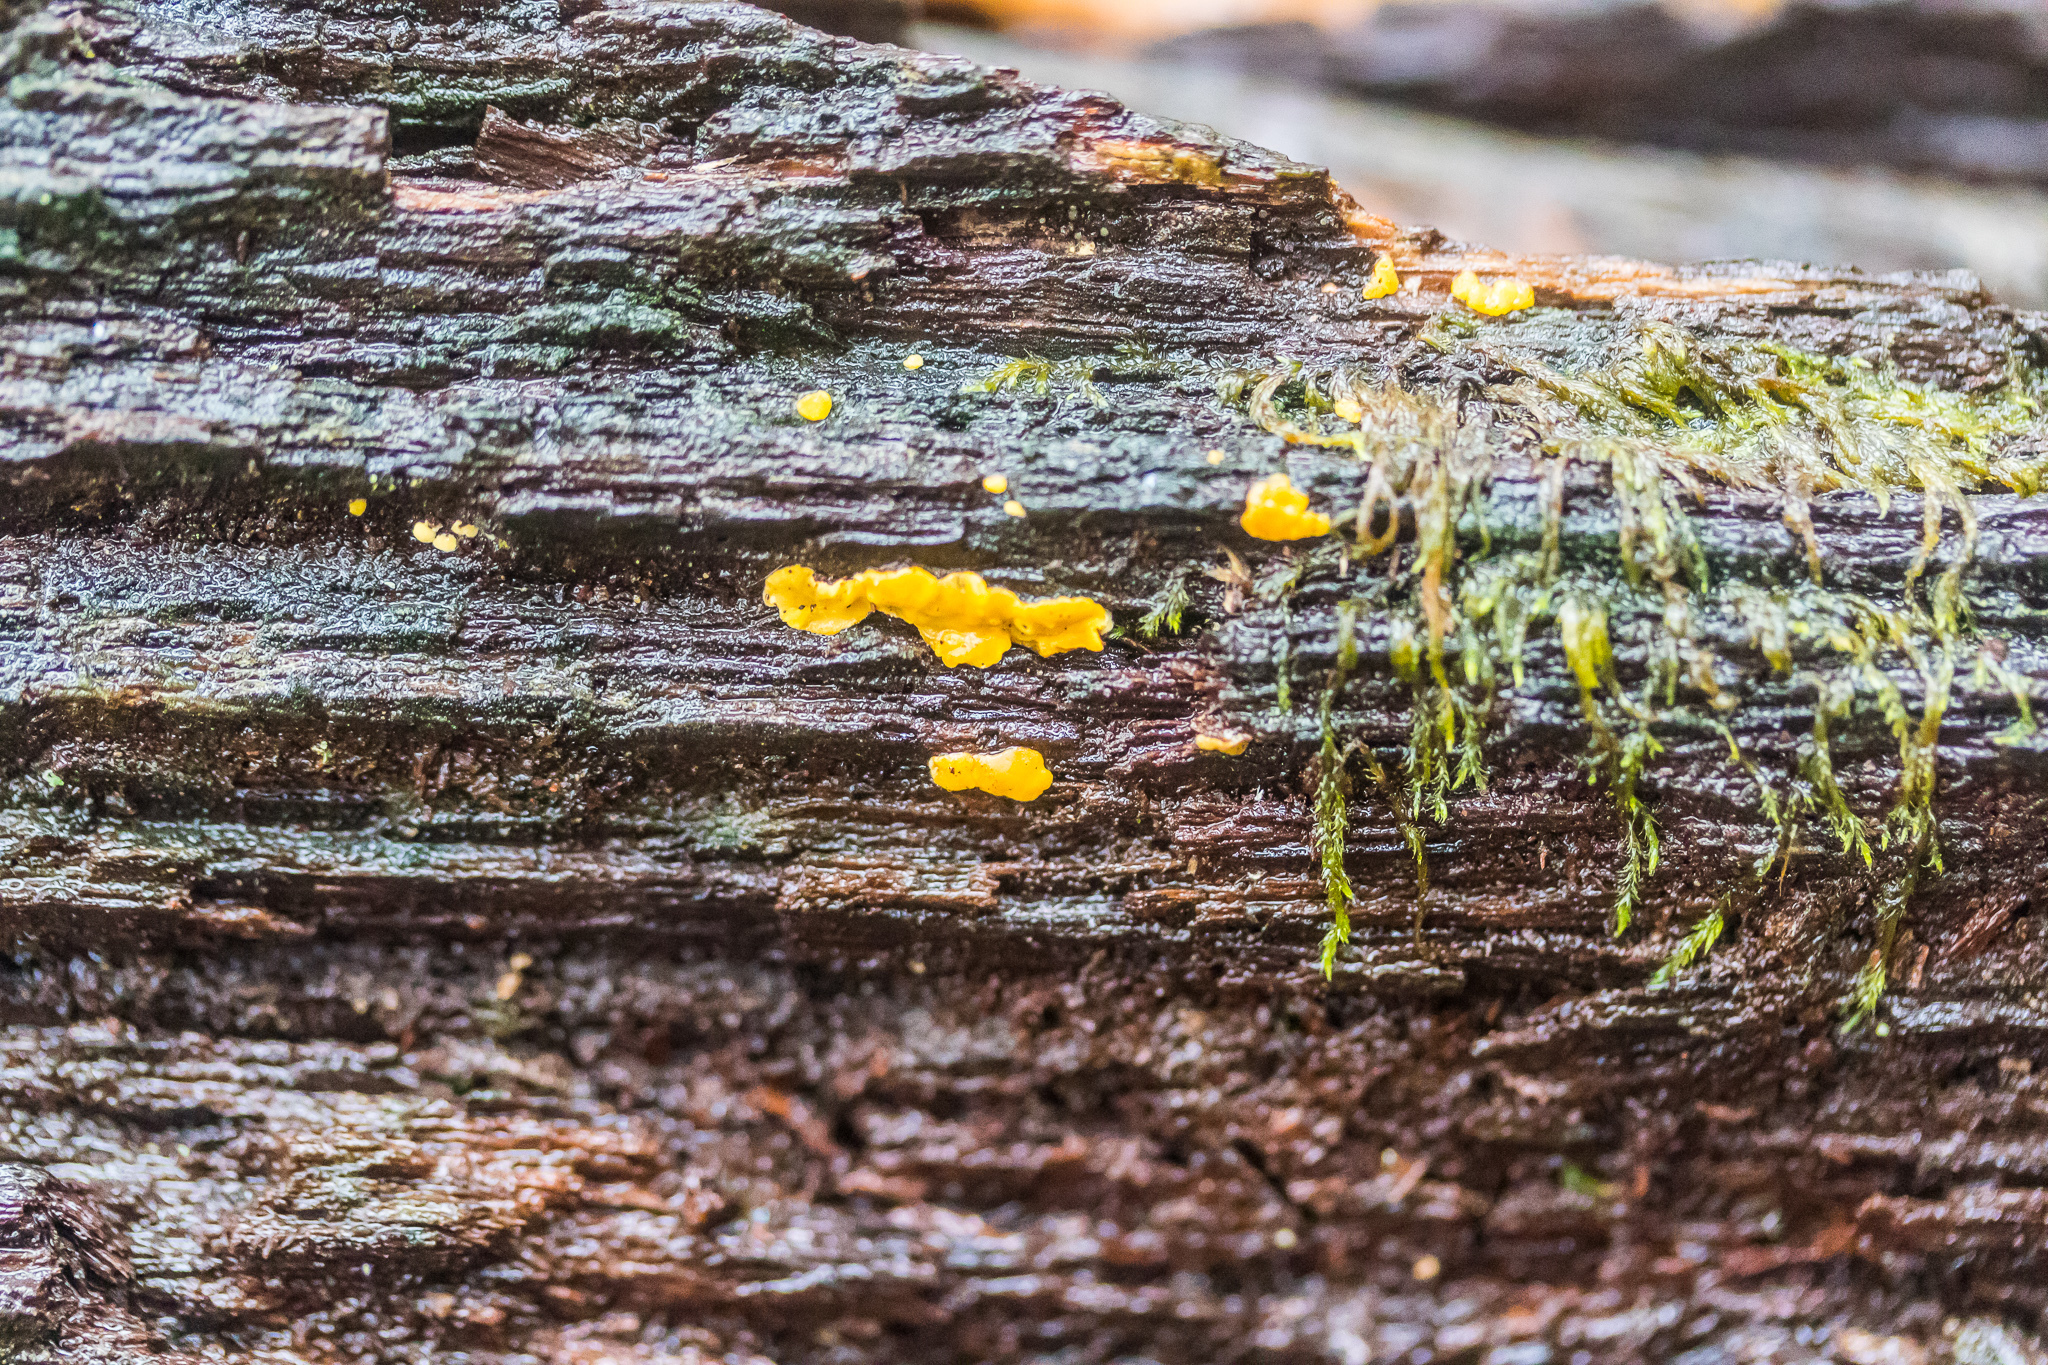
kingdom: Fungi
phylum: Ascomycota
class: Leotiomycetes
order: Helotiales
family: Pezizellaceae
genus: Calycina
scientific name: Calycina citrina
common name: Yellow fairy cups
